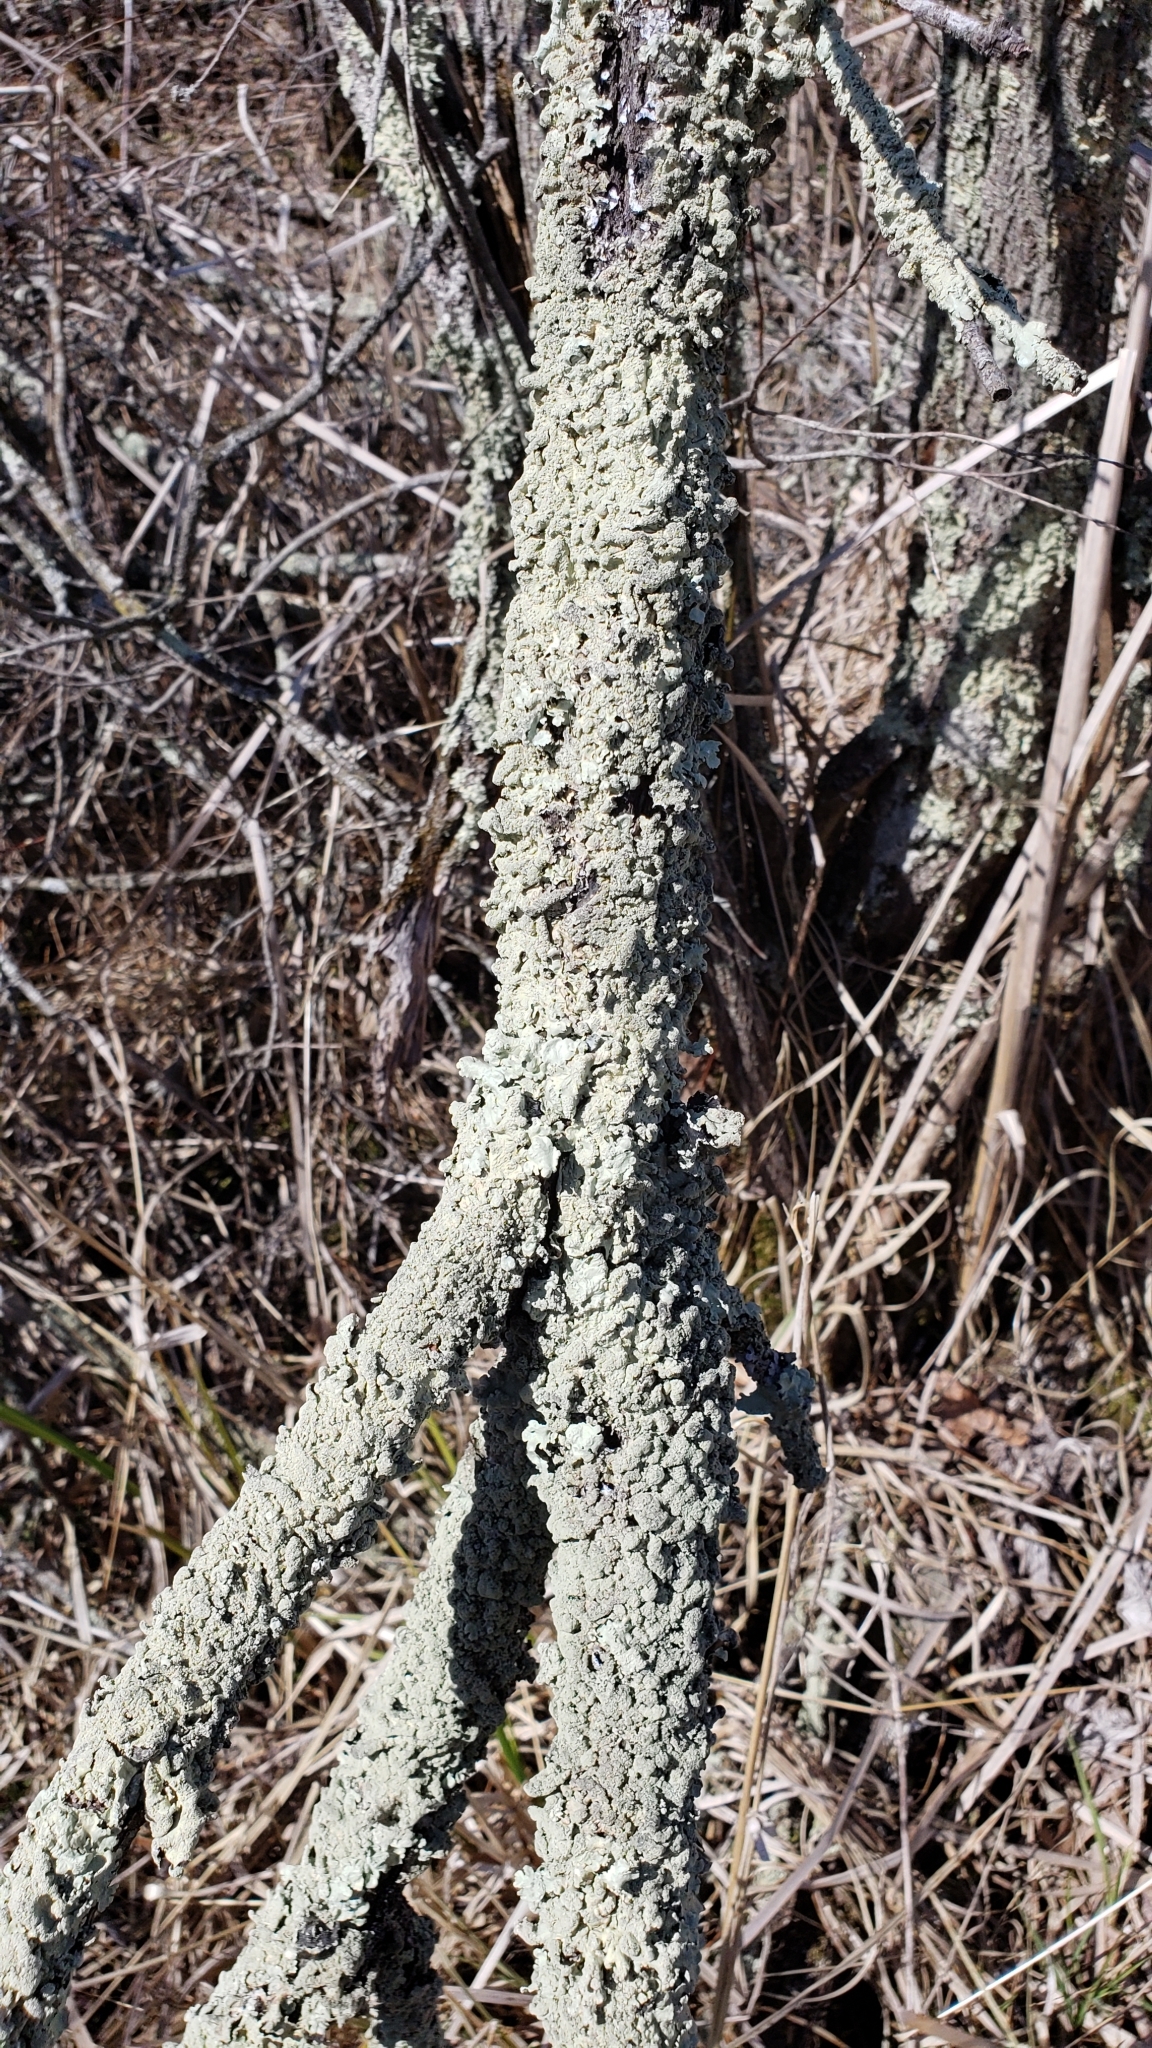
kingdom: Fungi
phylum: Ascomycota
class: Lecanoromycetes
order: Lecanorales
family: Parmeliaceae
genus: Flavoparmelia
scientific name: Flavoparmelia caperata
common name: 40-mile per hour lichen
